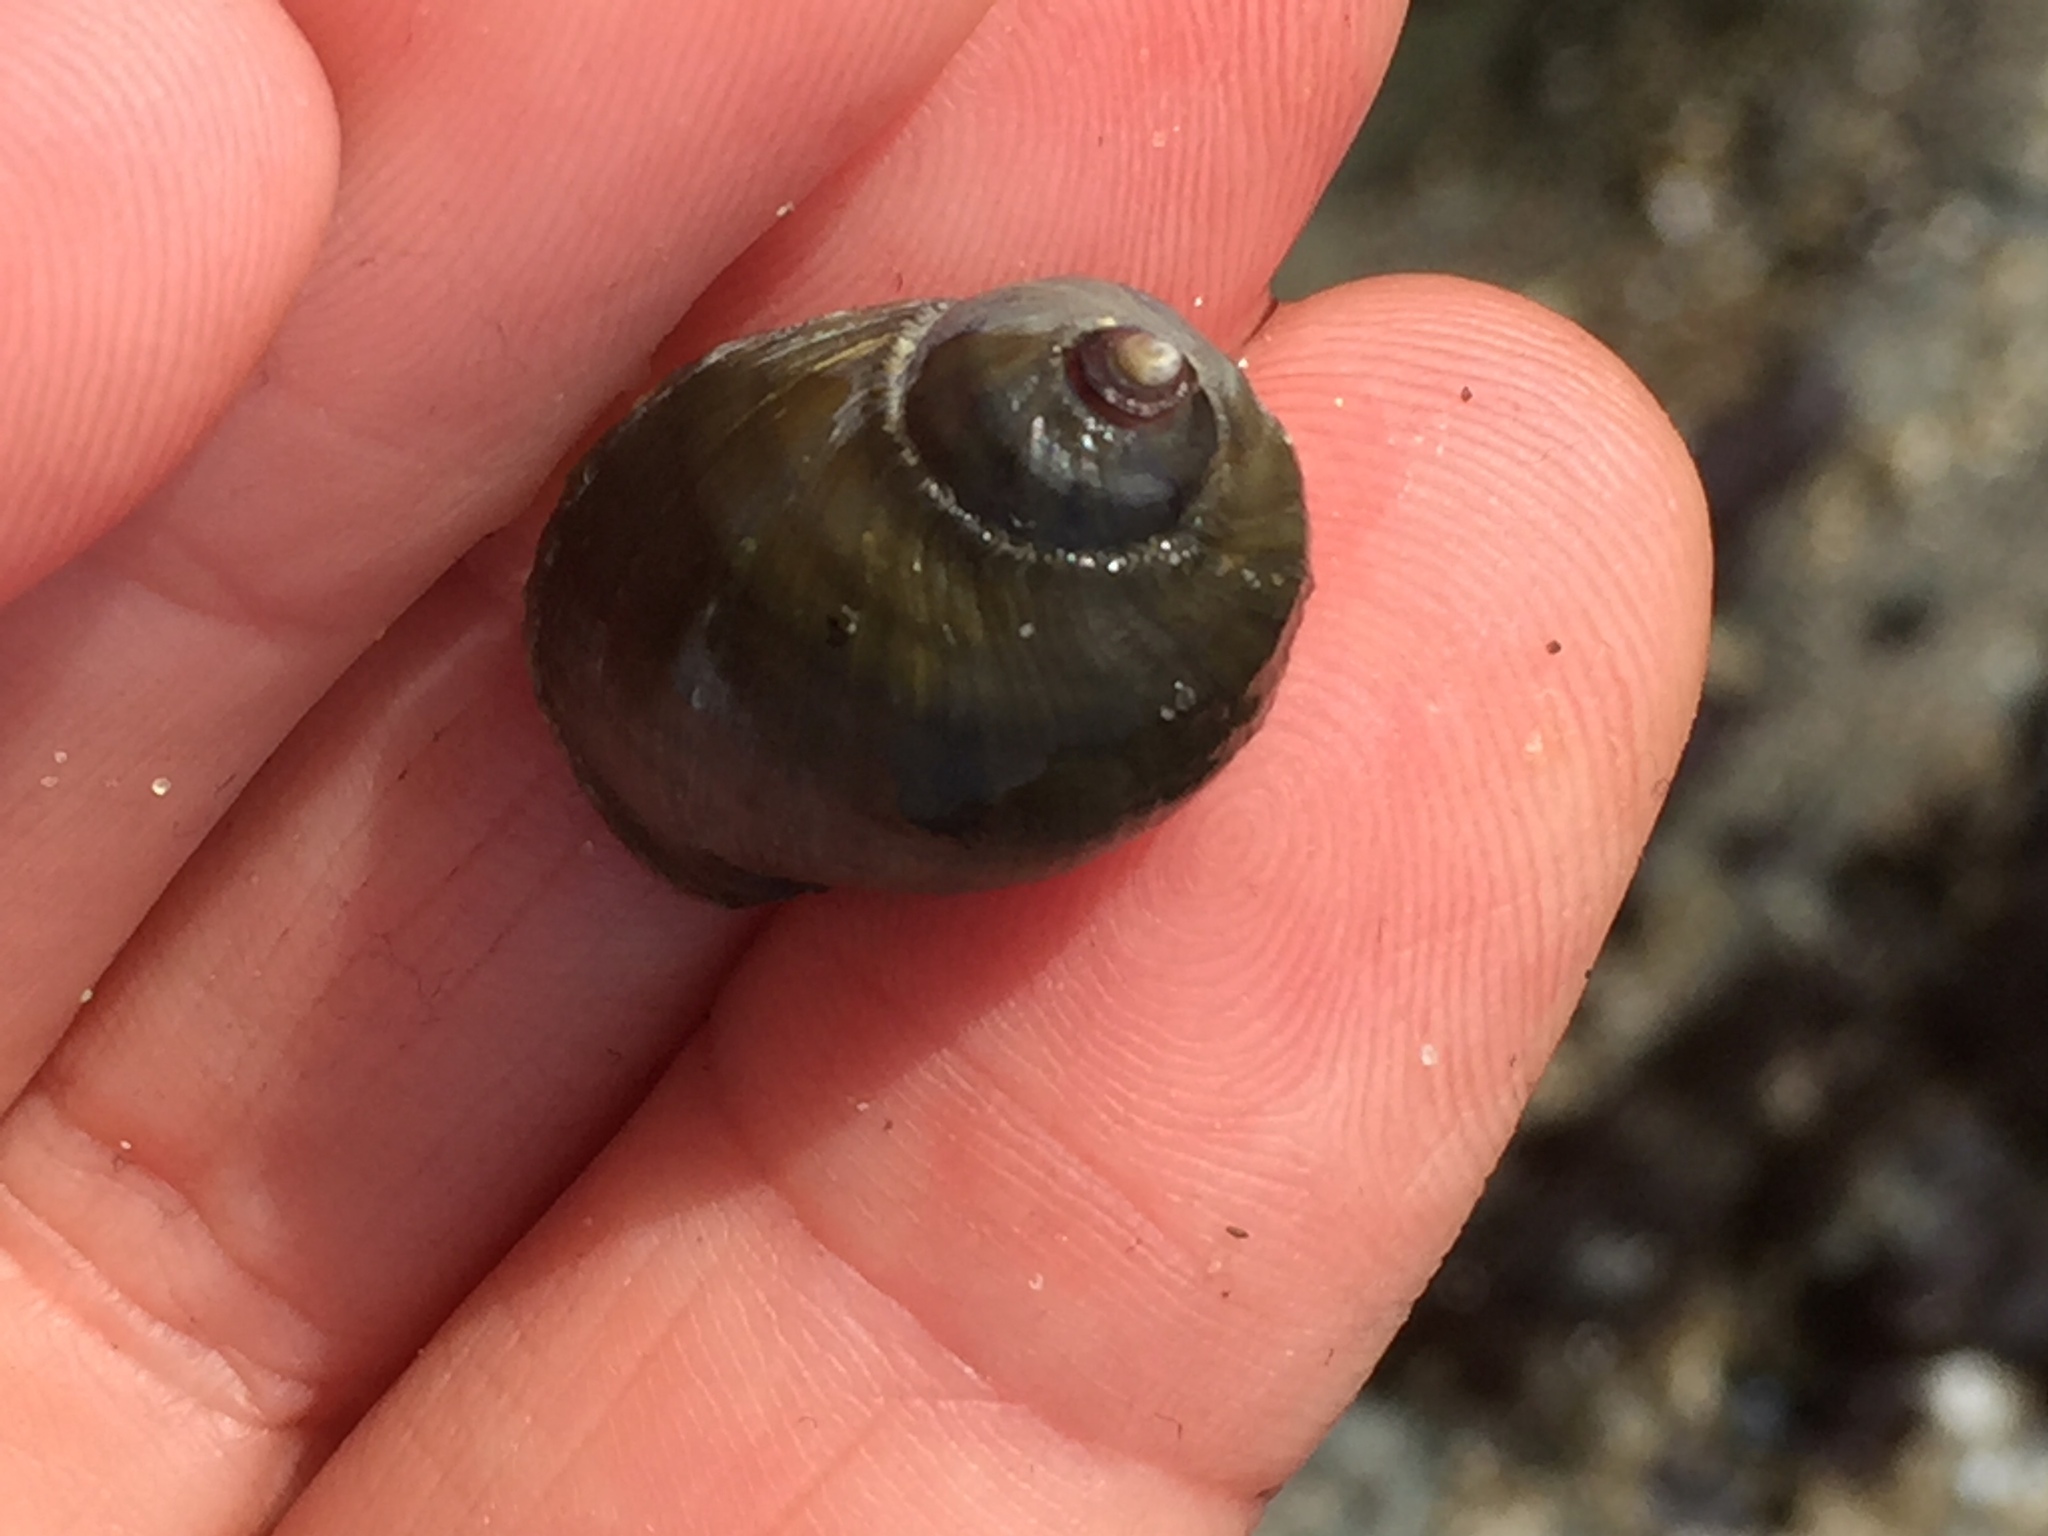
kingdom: Animalia
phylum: Mollusca
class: Gastropoda
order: Neogastropoda
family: Muricidae
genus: Nucella
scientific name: Nucella ostrina
